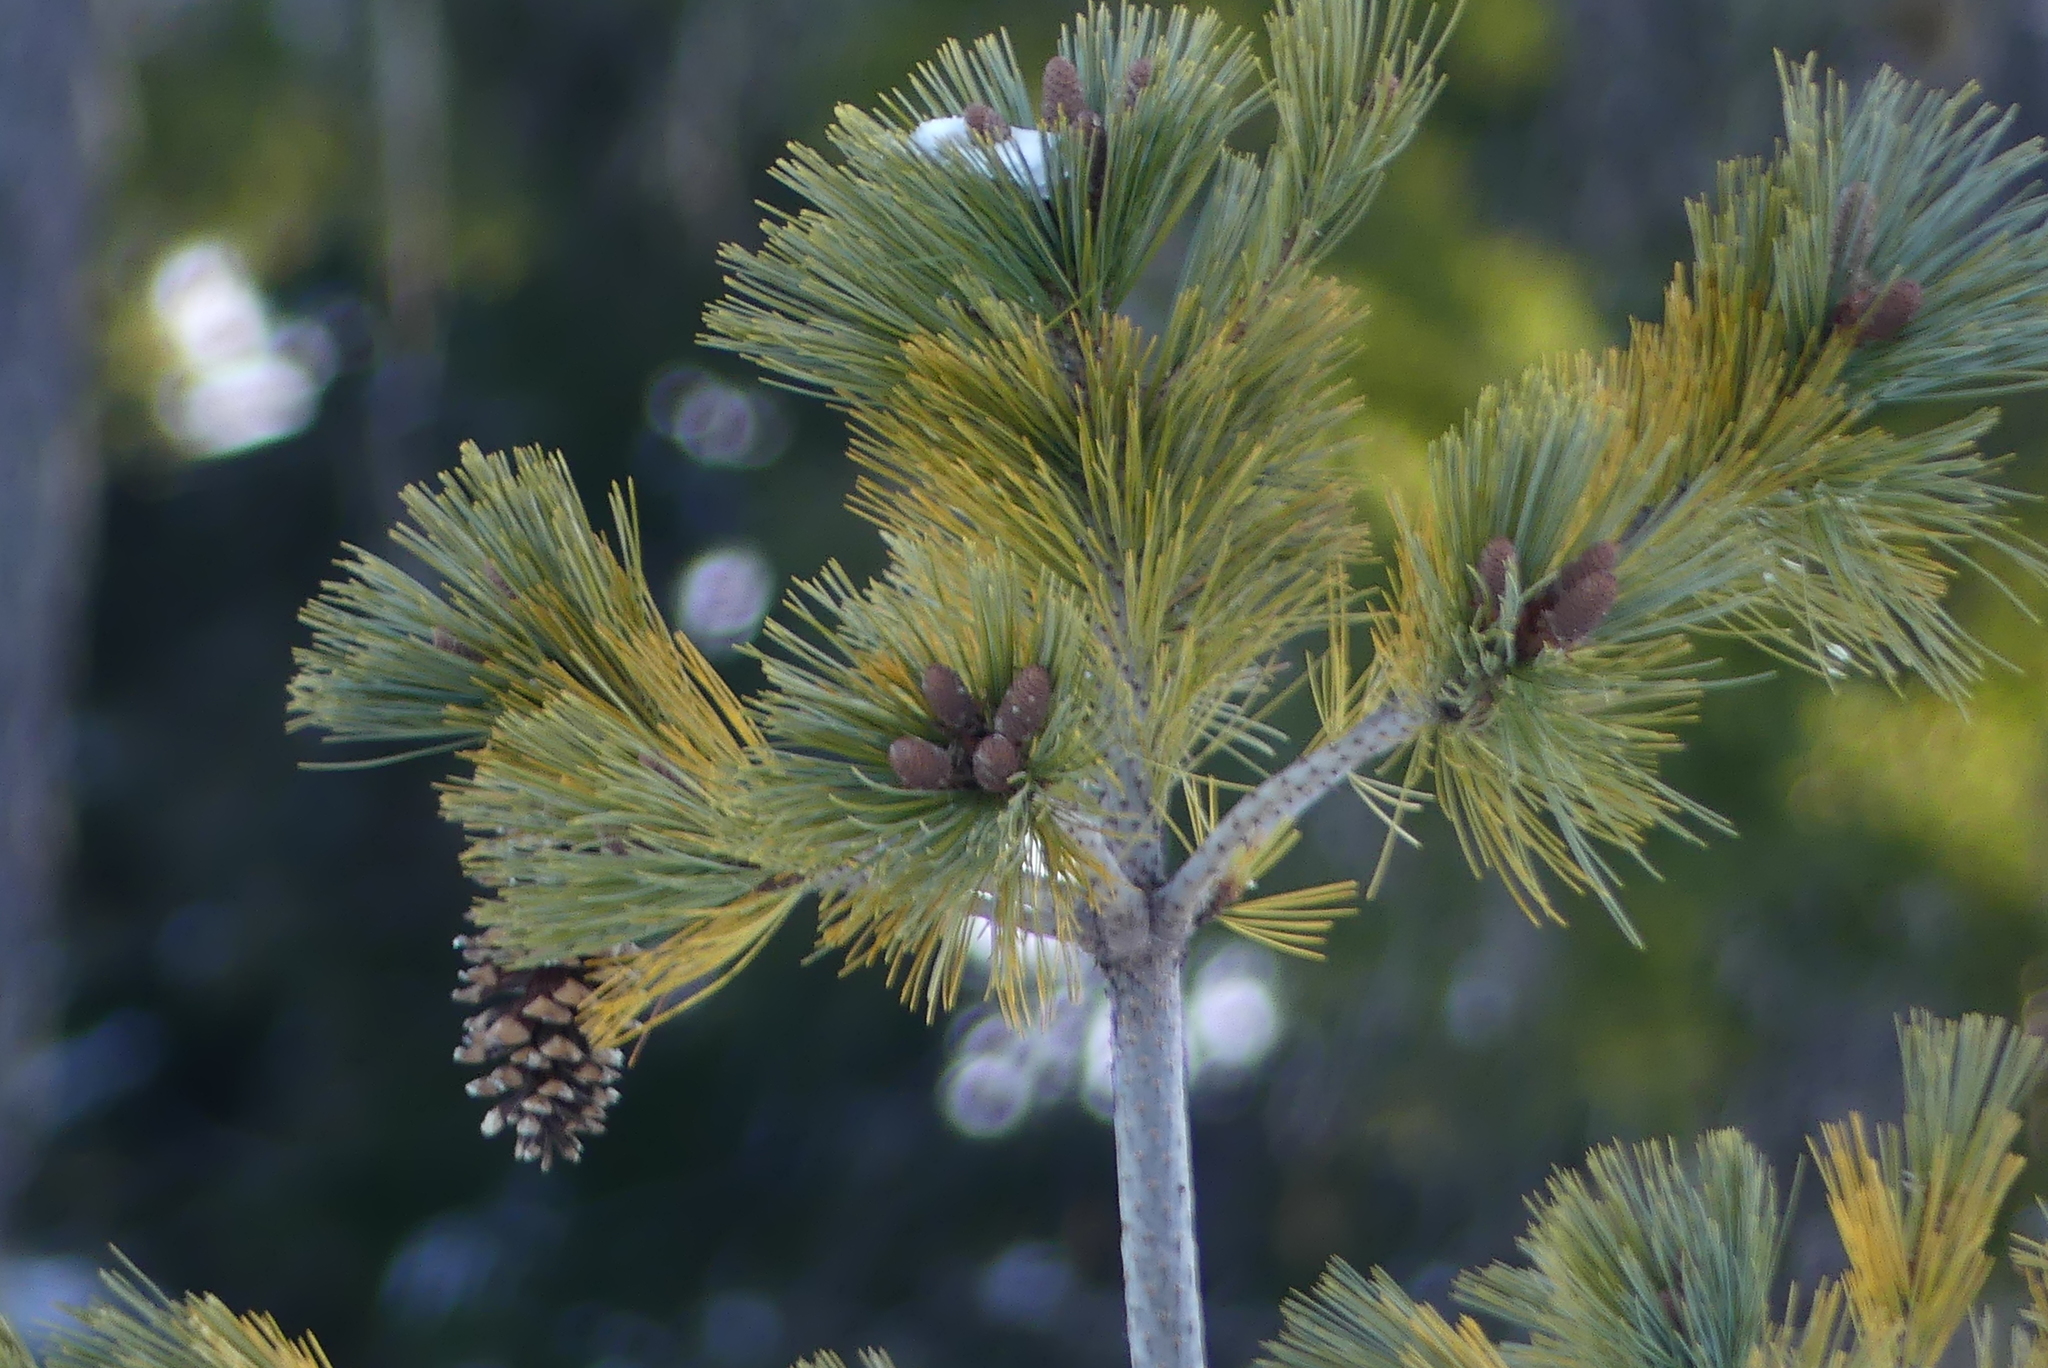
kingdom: Plantae
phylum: Tracheophyta
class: Pinopsida
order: Pinales
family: Pinaceae
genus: Pinus
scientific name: Pinus monticola
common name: Western white pine
